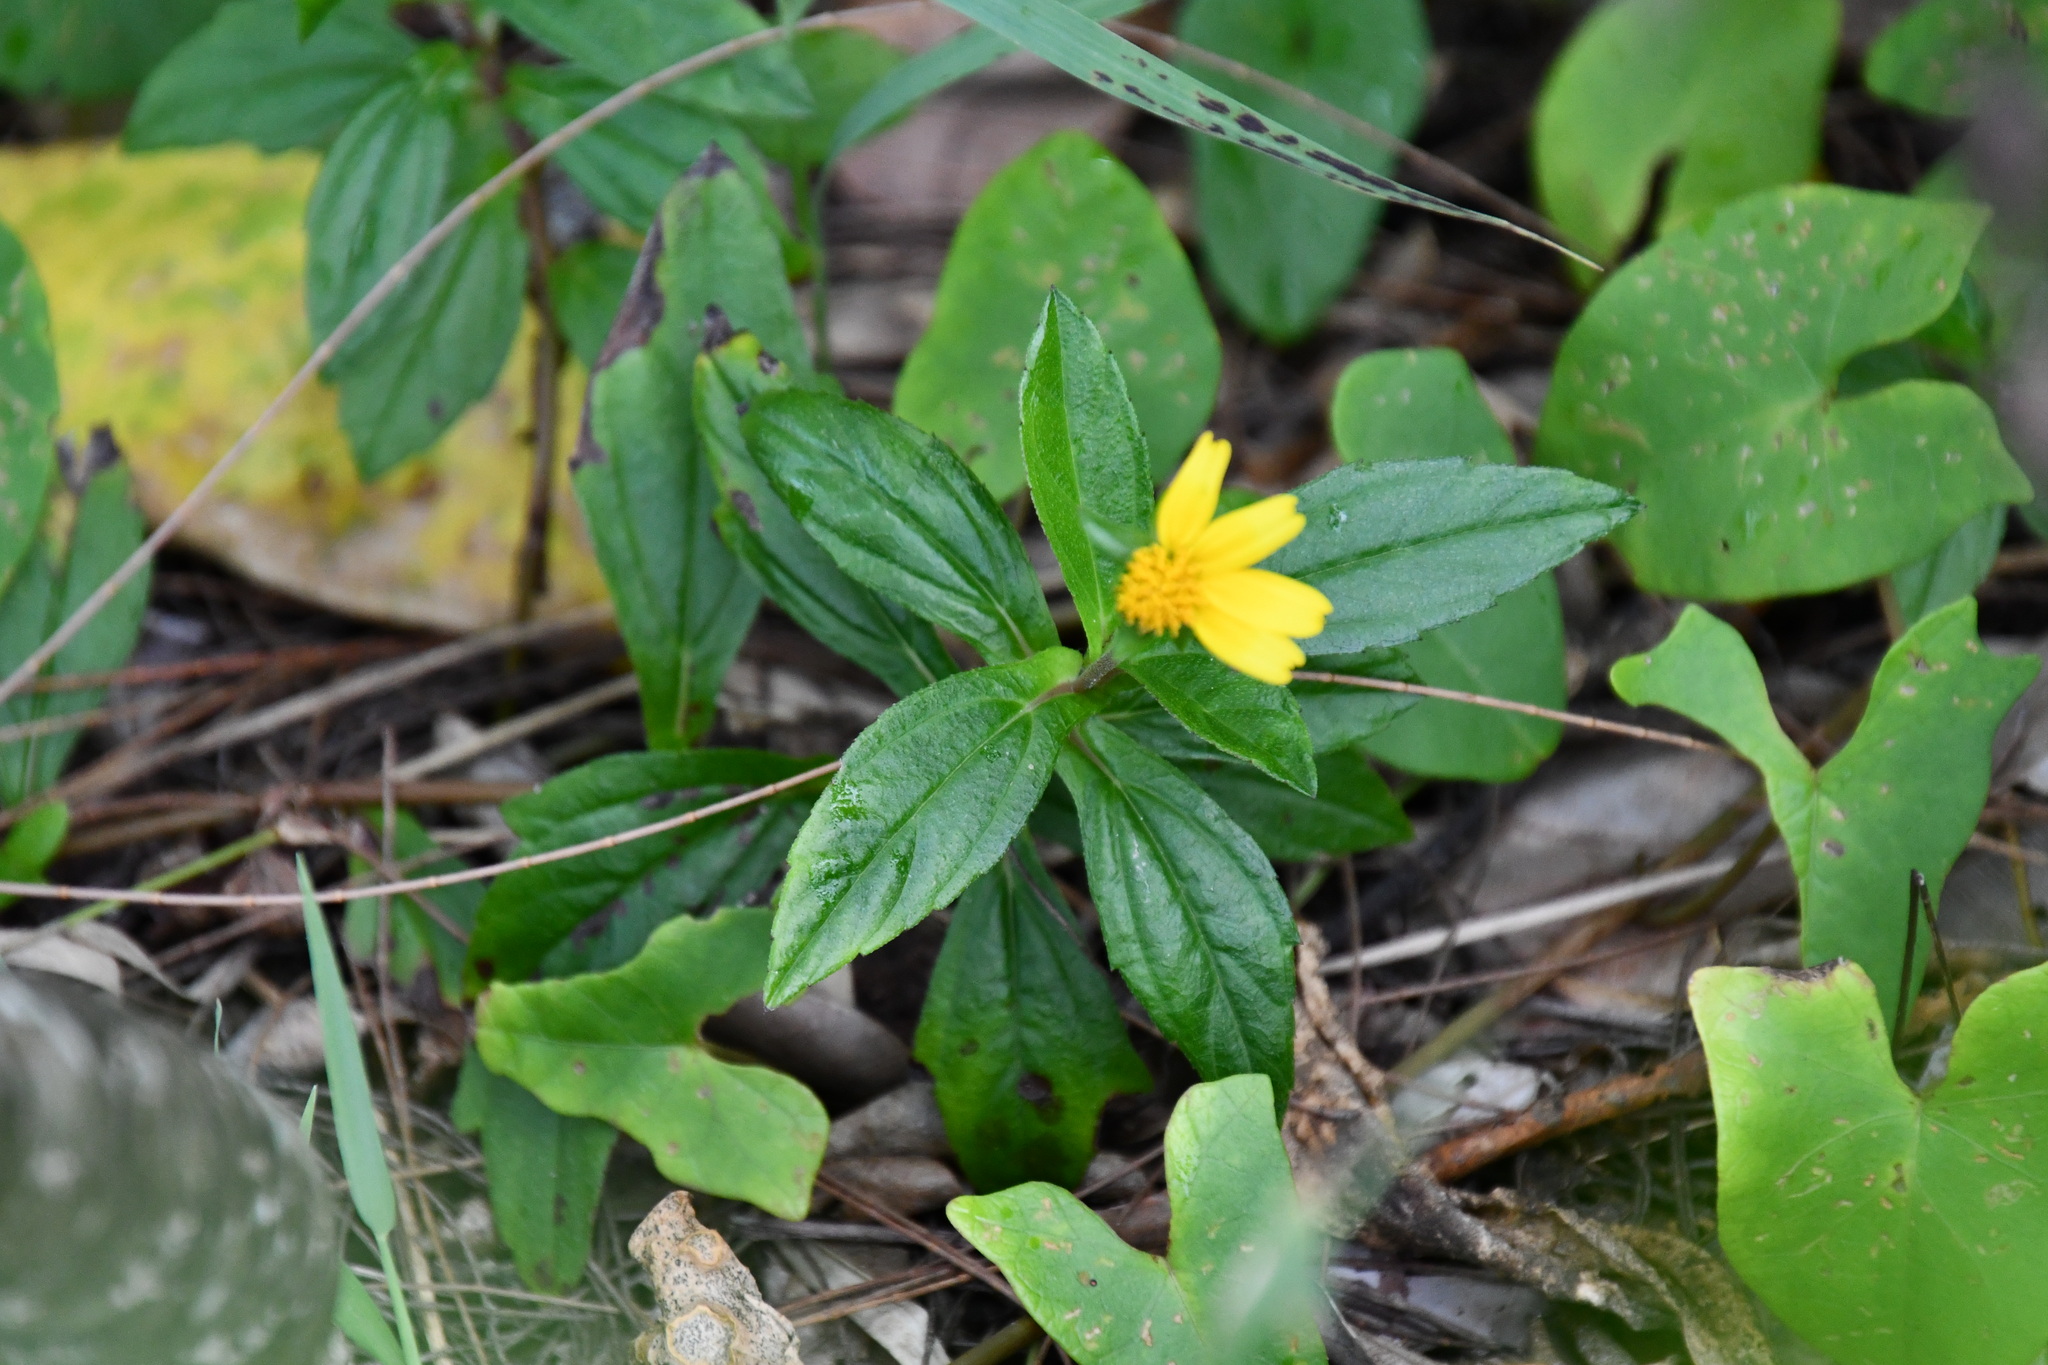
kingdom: Plantae
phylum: Tracheophyta
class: Magnoliopsida
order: Asterales
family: Asteraceae
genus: Sphagneticola
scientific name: Sphagneticola trilobata
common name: Bay biscayne creeping-oxeye
